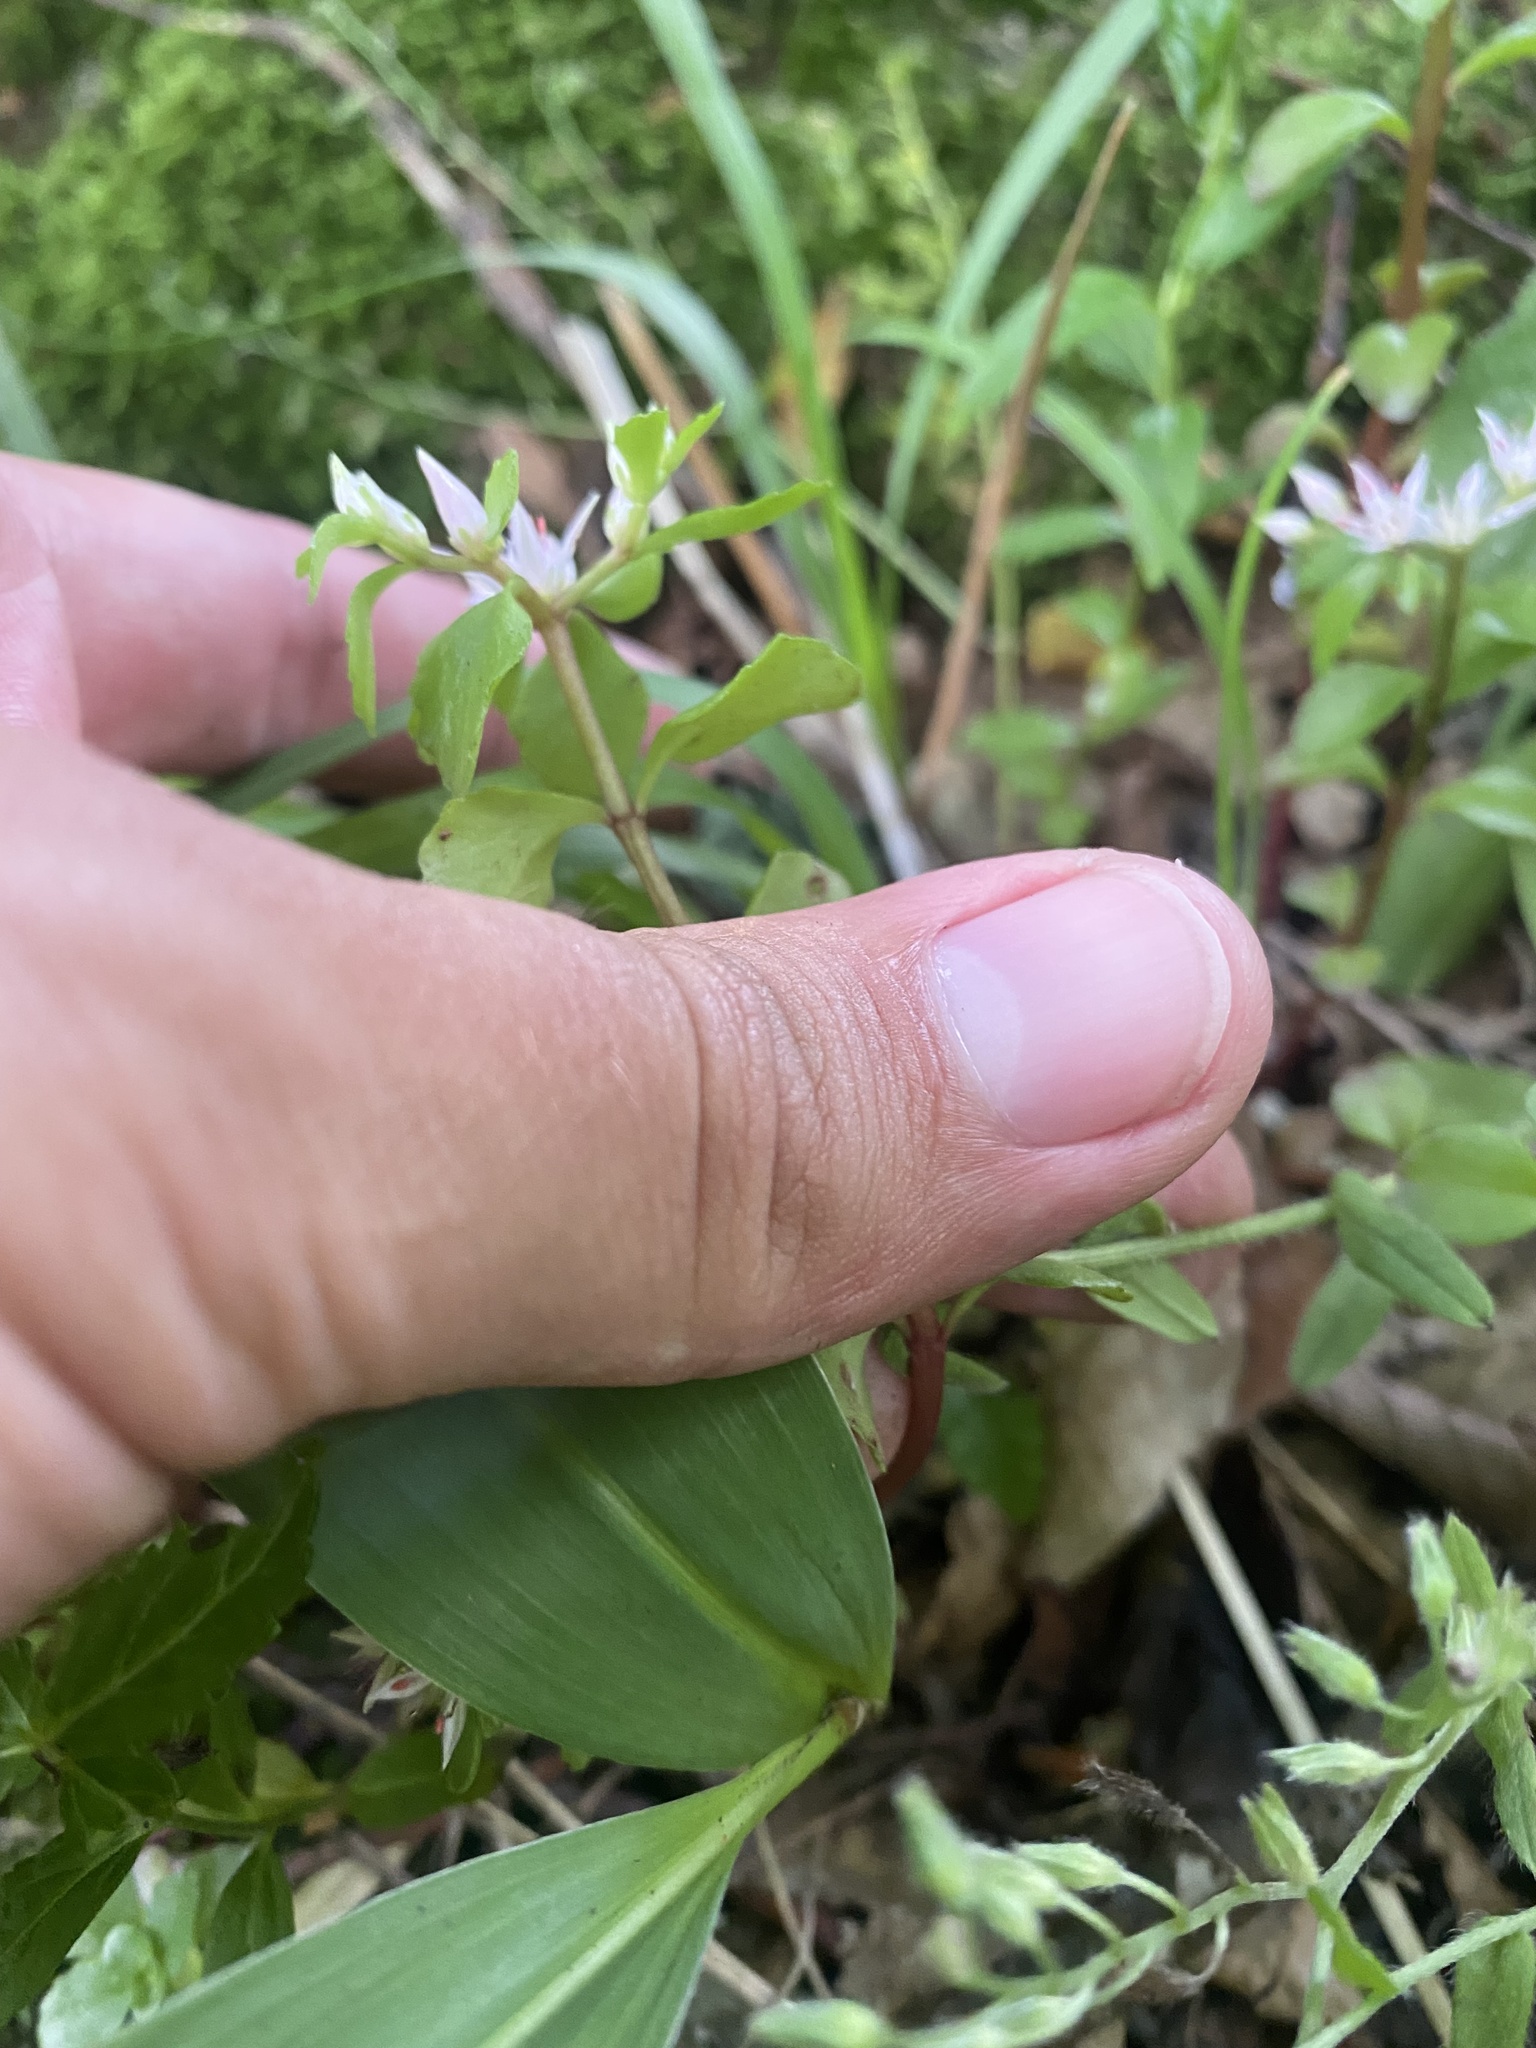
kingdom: Plantae
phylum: Tracheophyta
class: Magnoliopsida
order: Saxifragales
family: Crassulaceae
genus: Phedimus
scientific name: Phedimus stolonifer
